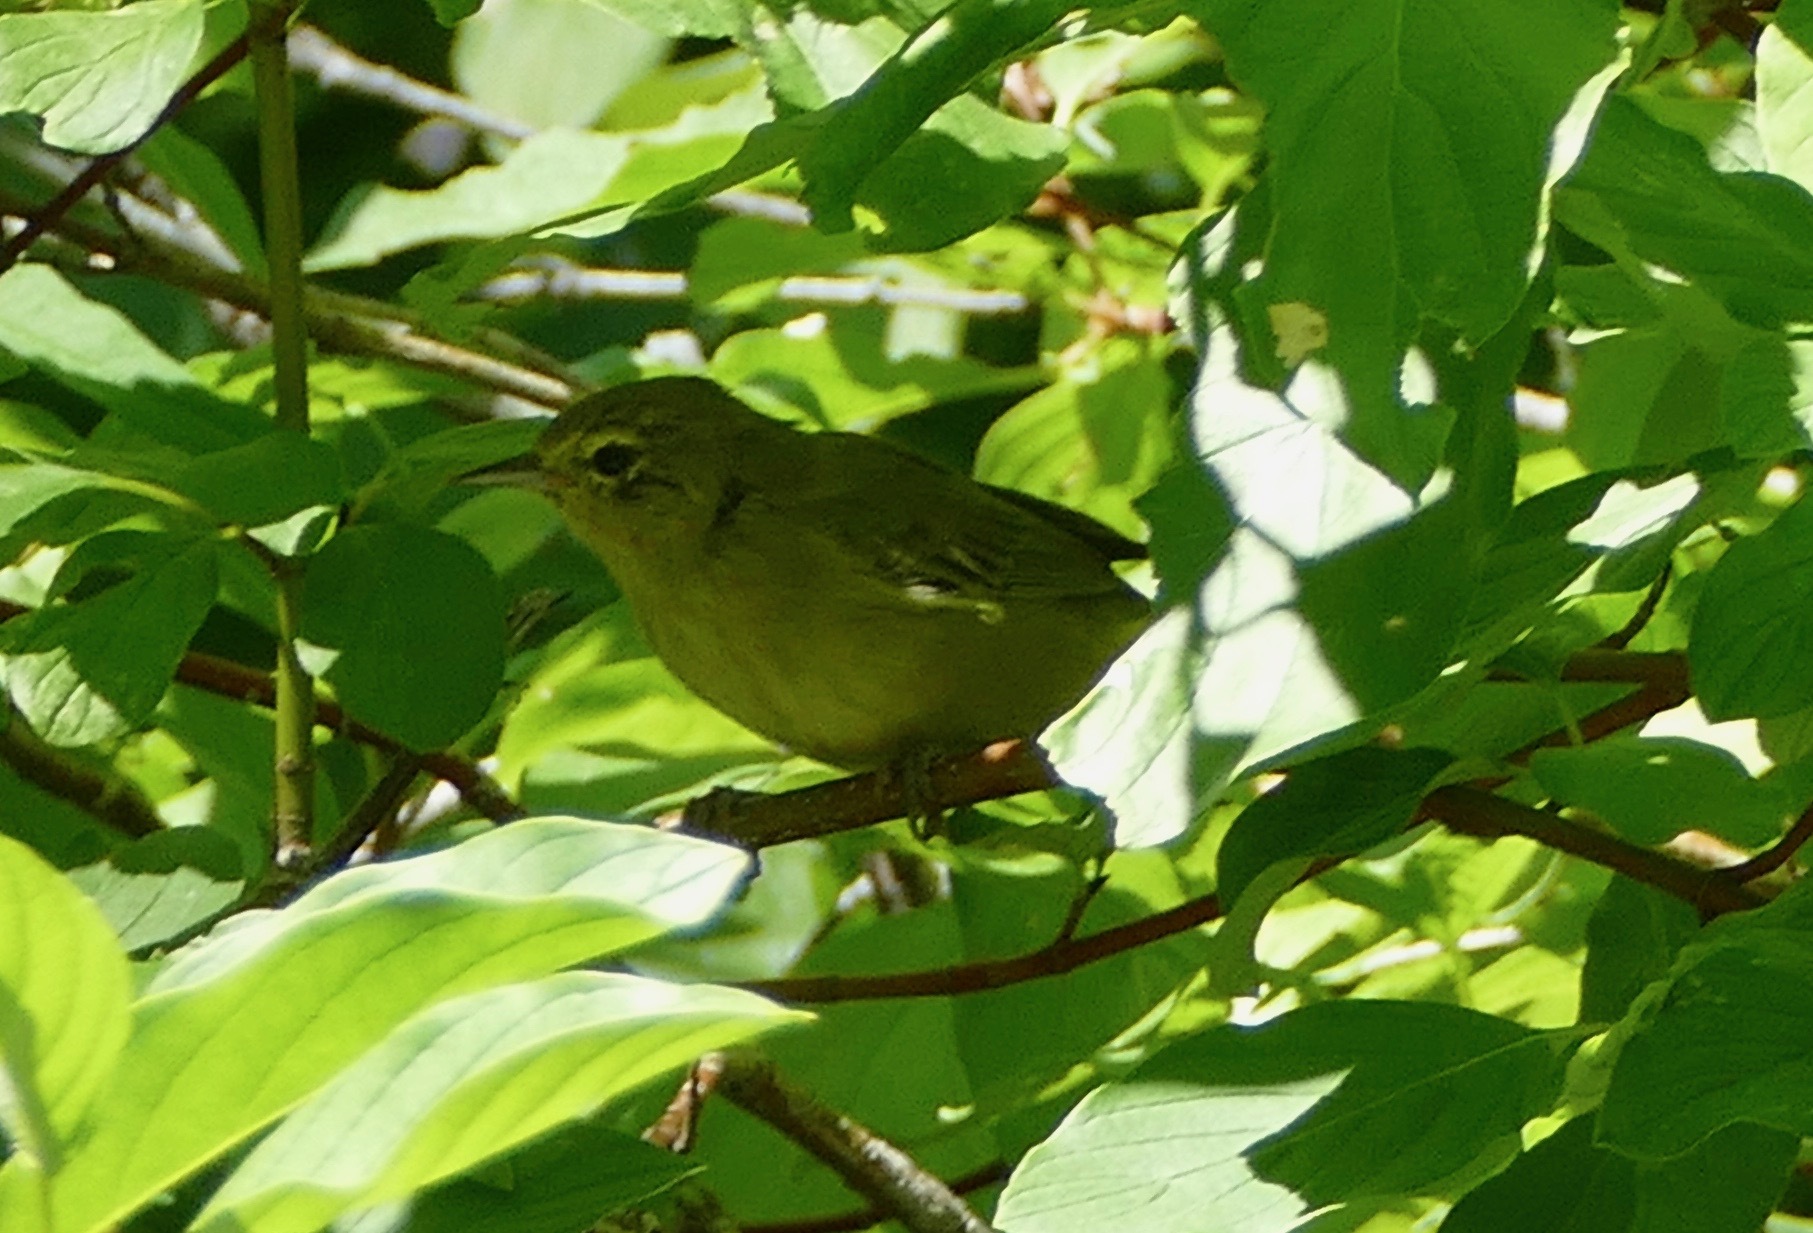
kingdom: Animalia
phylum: Chordata
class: Aves
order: Passeriformes
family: Parulidae
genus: Leiothlypis
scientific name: Leiothlypis celata
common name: Orange-crowned warbler
